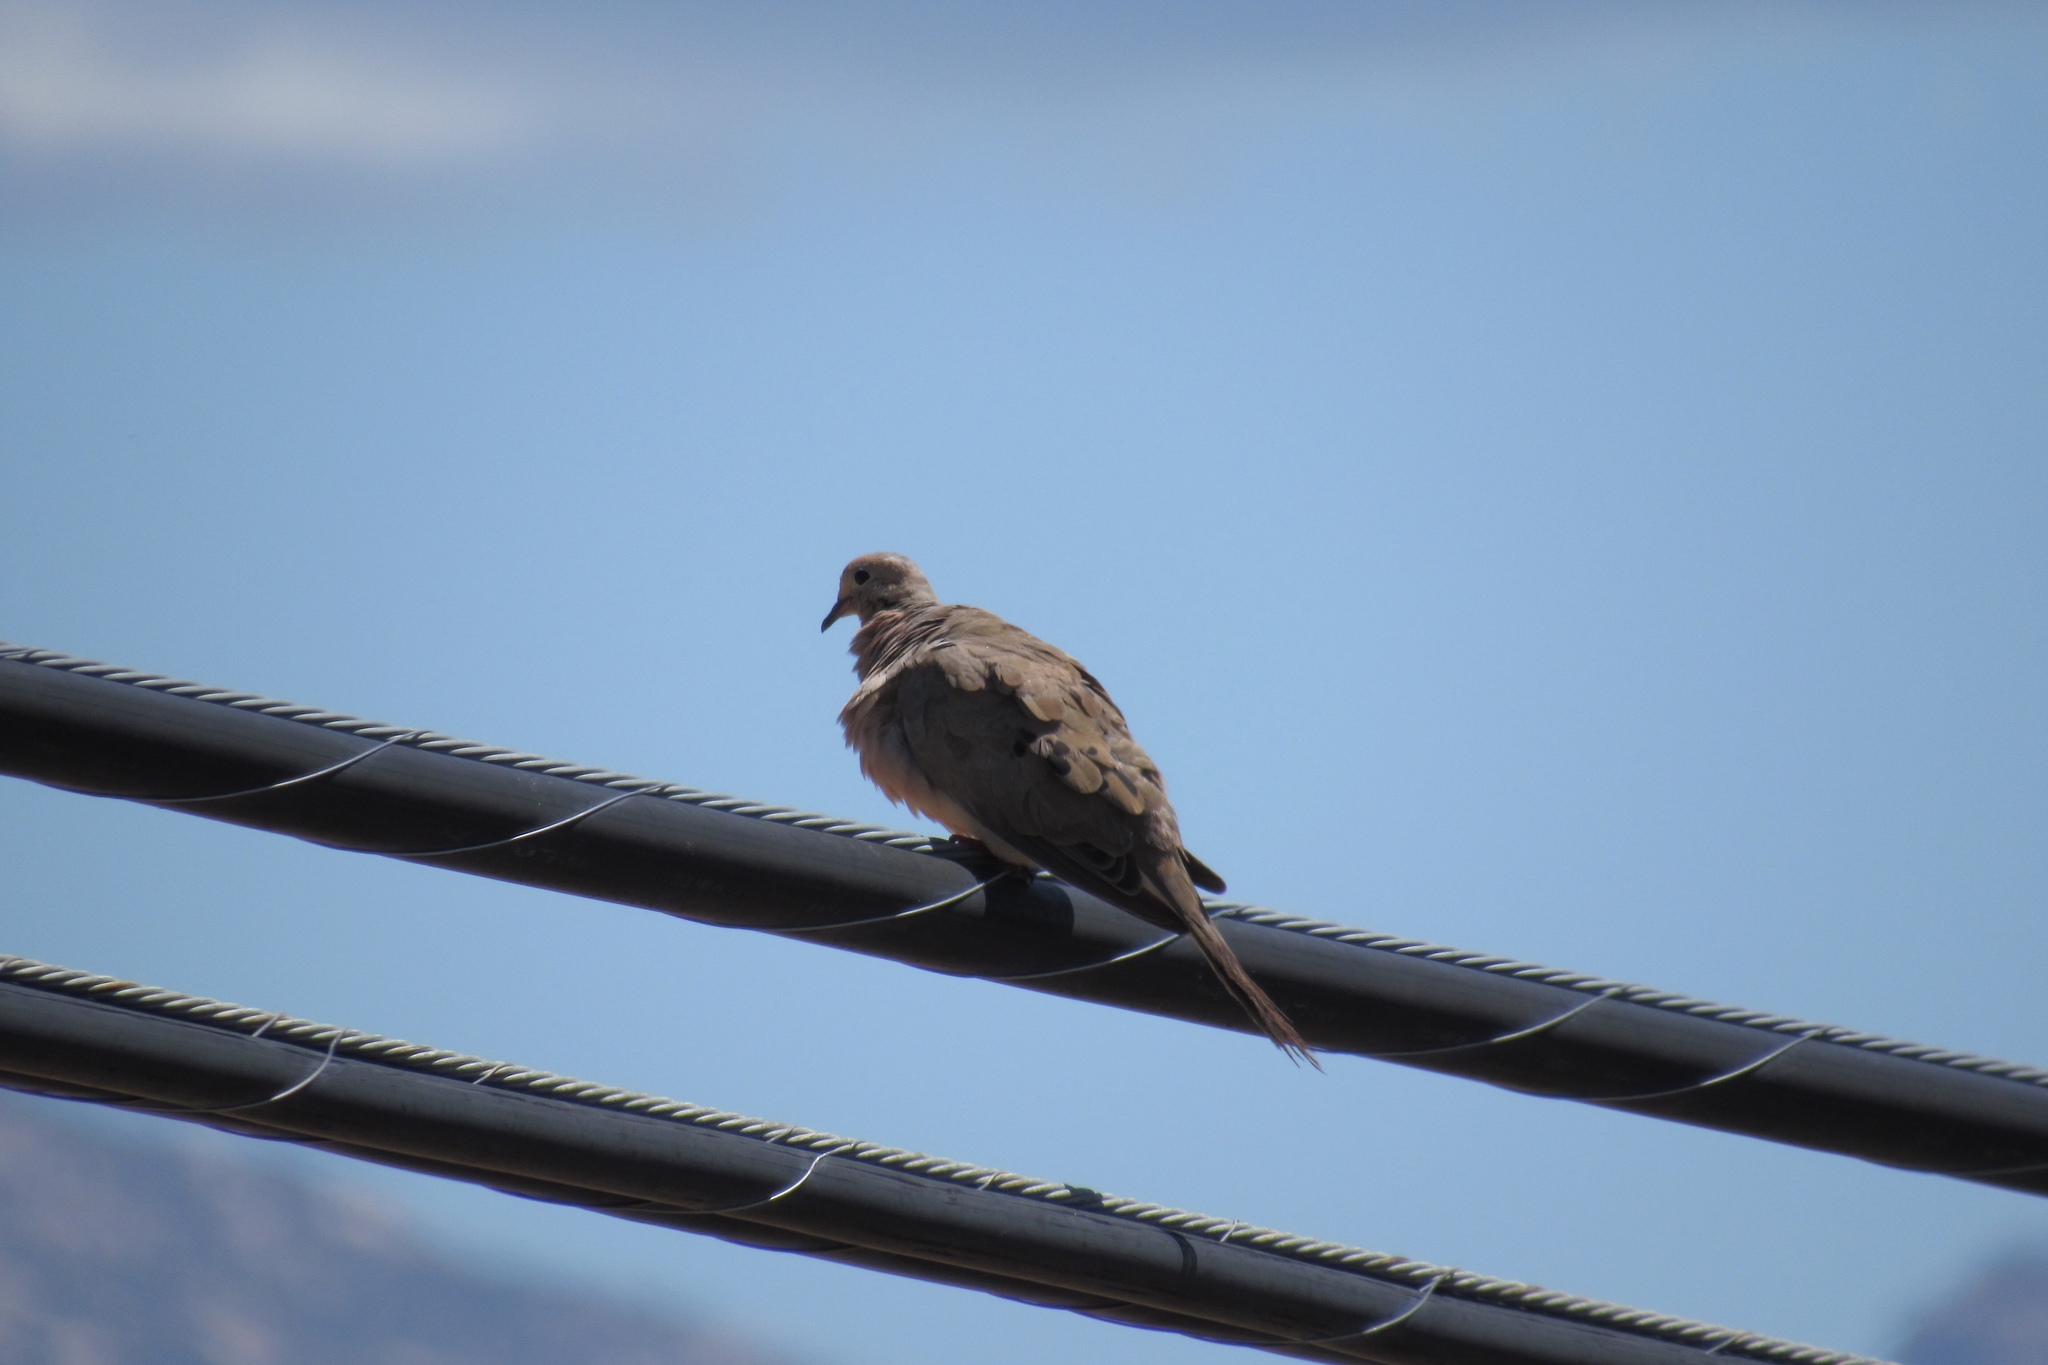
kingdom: Animalia
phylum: Chordata
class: Aves
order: Columbiformes
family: Columbidae
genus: Zenaida
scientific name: Zenaida macroura
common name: Mourning dove
